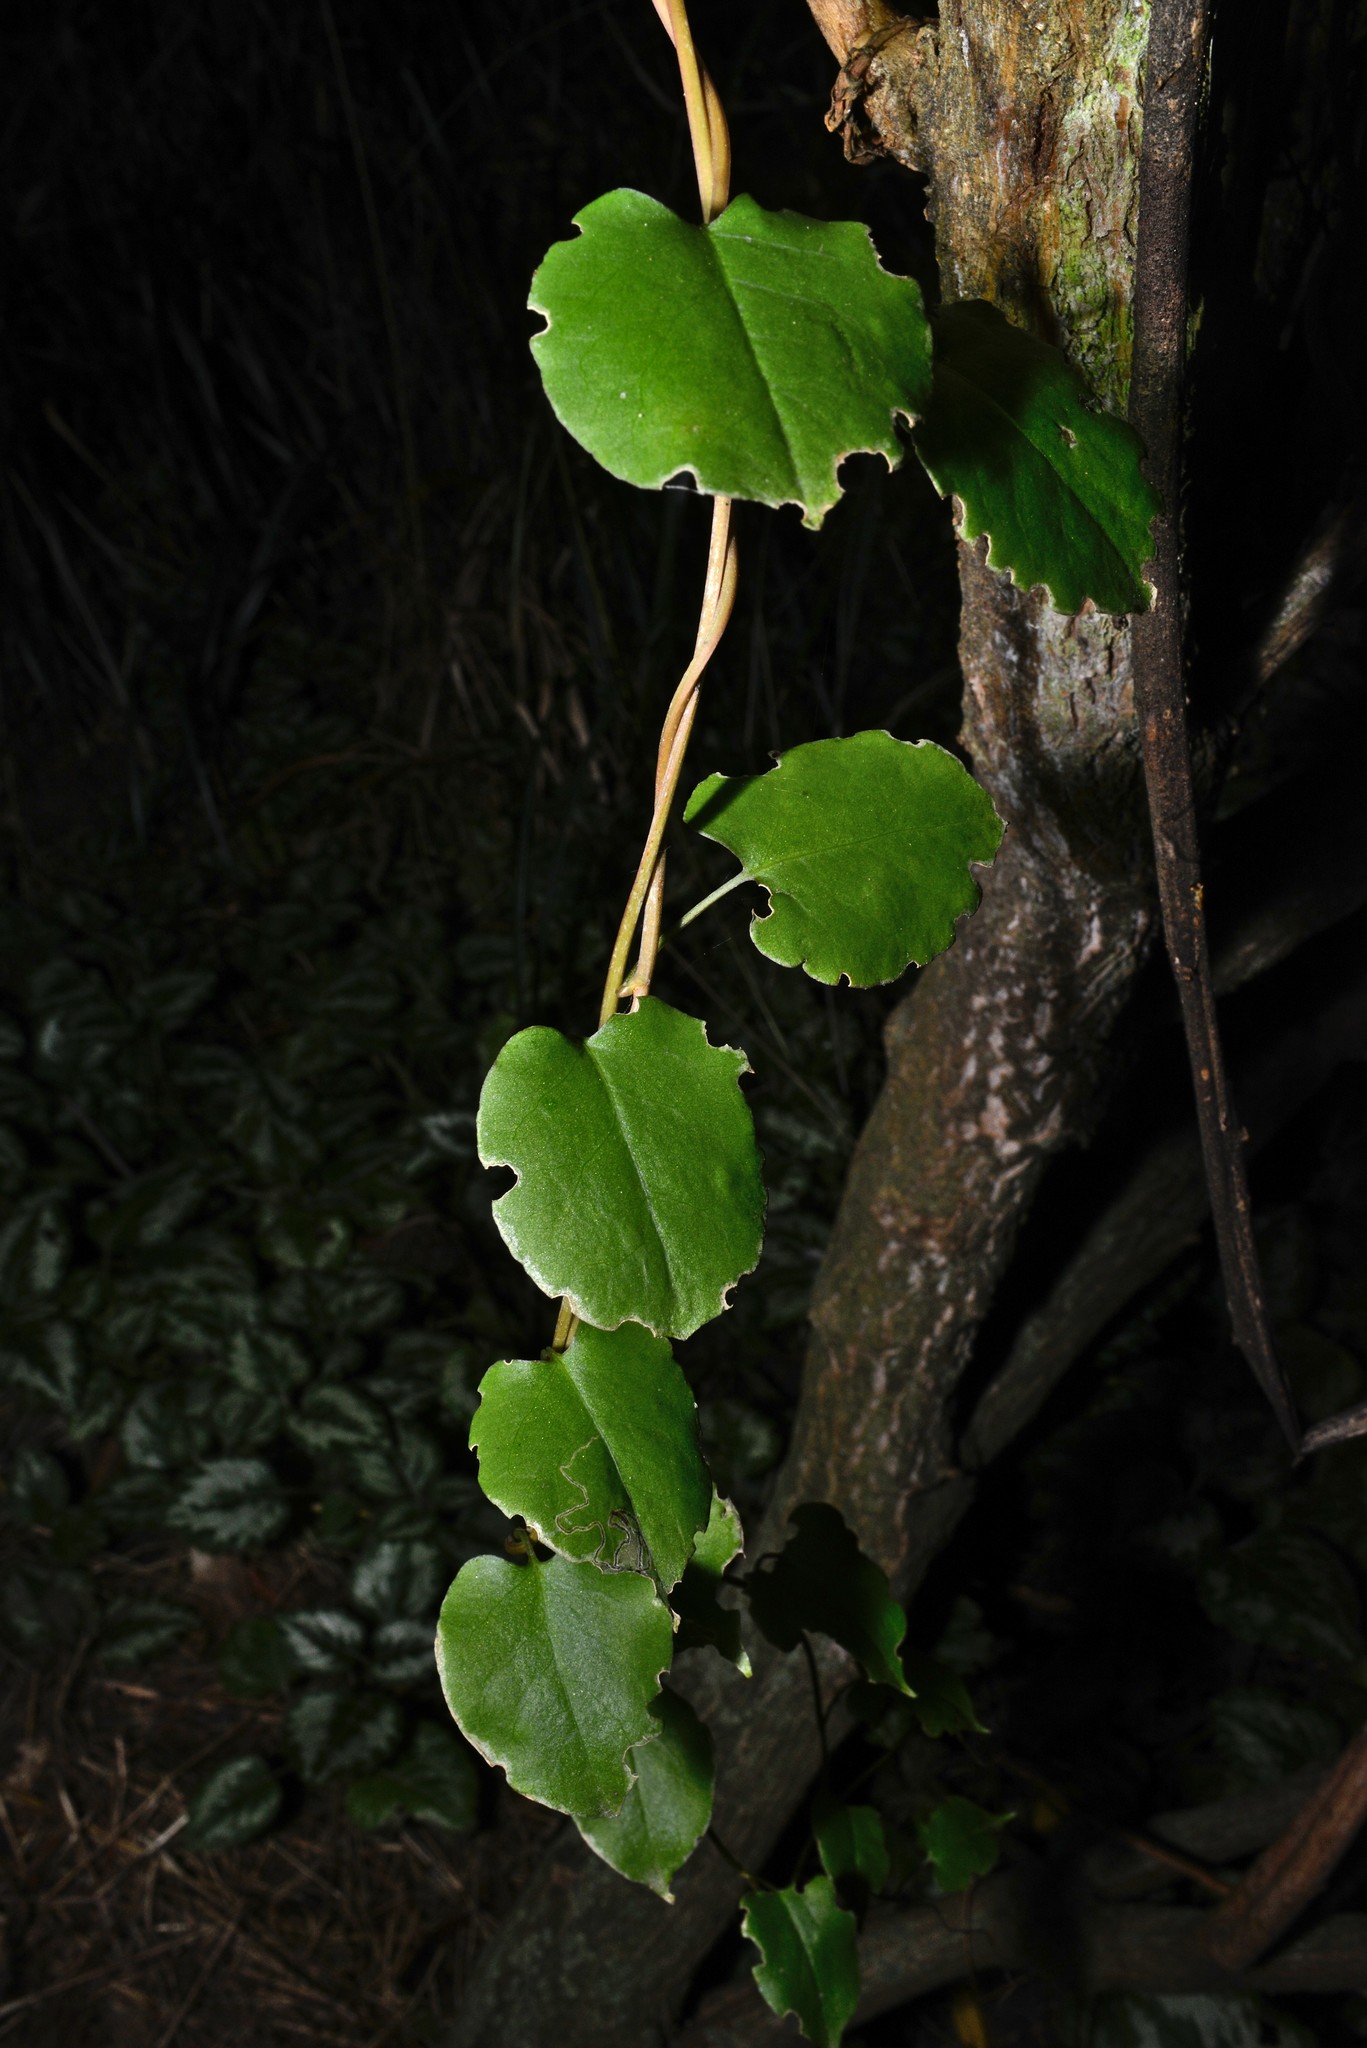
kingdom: Plantae
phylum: Tracheophyta
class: Magnoliopsida
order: Caryophyllales
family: Polygonaceae
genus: Muehlenbeckia
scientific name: Muehlenbeckia australis
